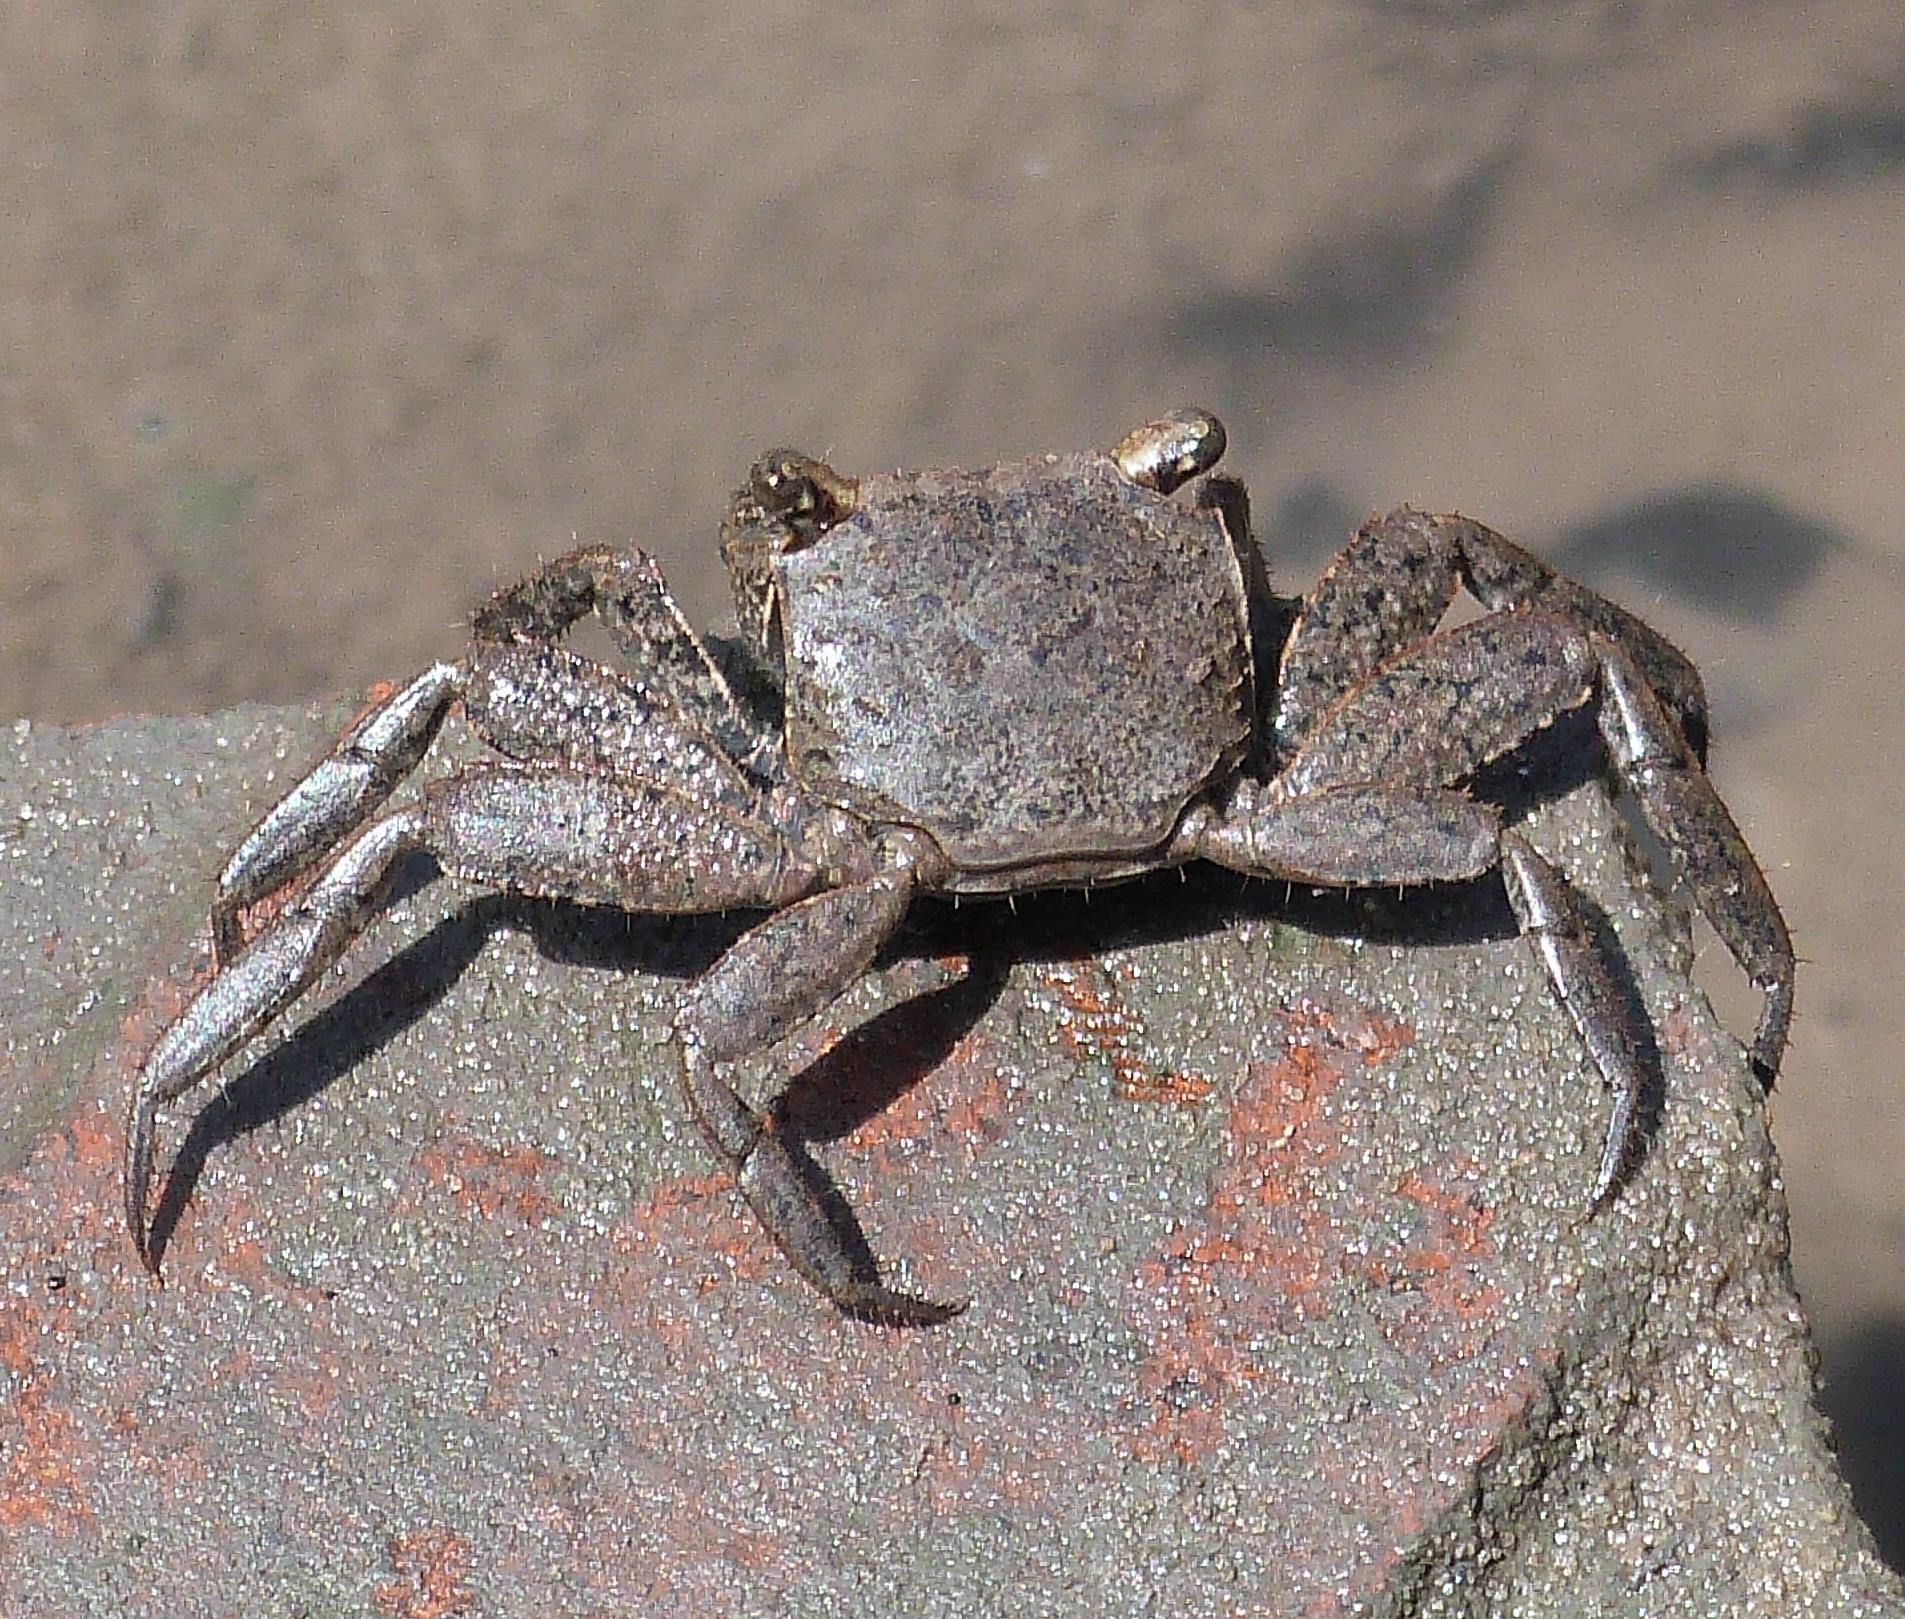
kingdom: Animalia
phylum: Arthropoda
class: Malacostraca
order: Decapoda
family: Sesarmidae
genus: Armases
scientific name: Armases cinereum
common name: Squareback marsh crab
